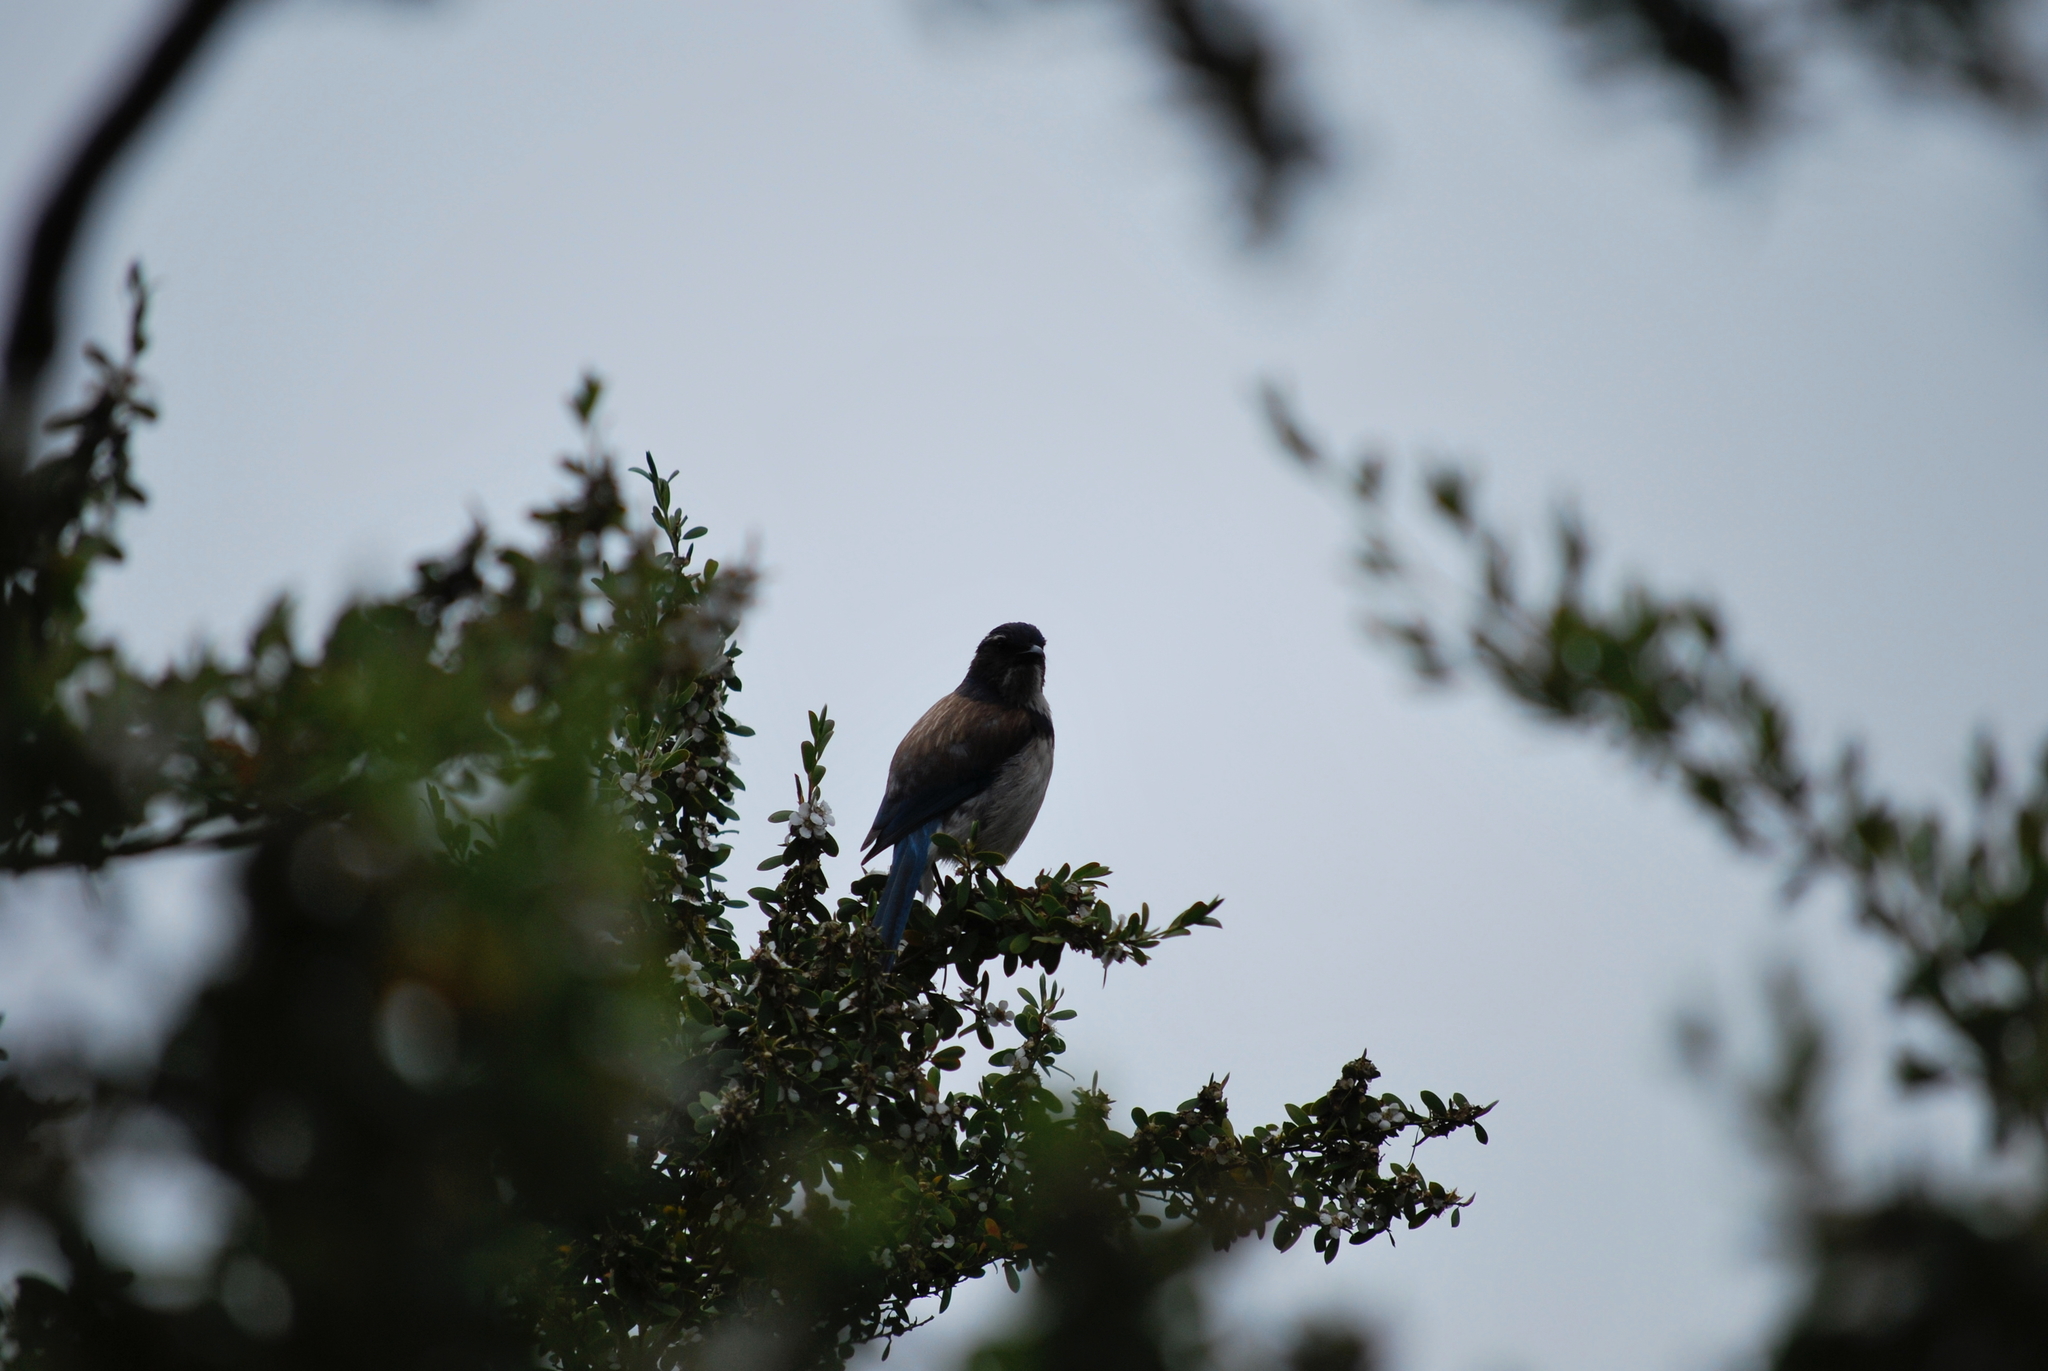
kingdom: Animalia
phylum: Chordata
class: Aves
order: Passeriformes
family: Corvidae
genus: Aphelocoma
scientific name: Aphelocoma californica
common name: California scrub-jay
